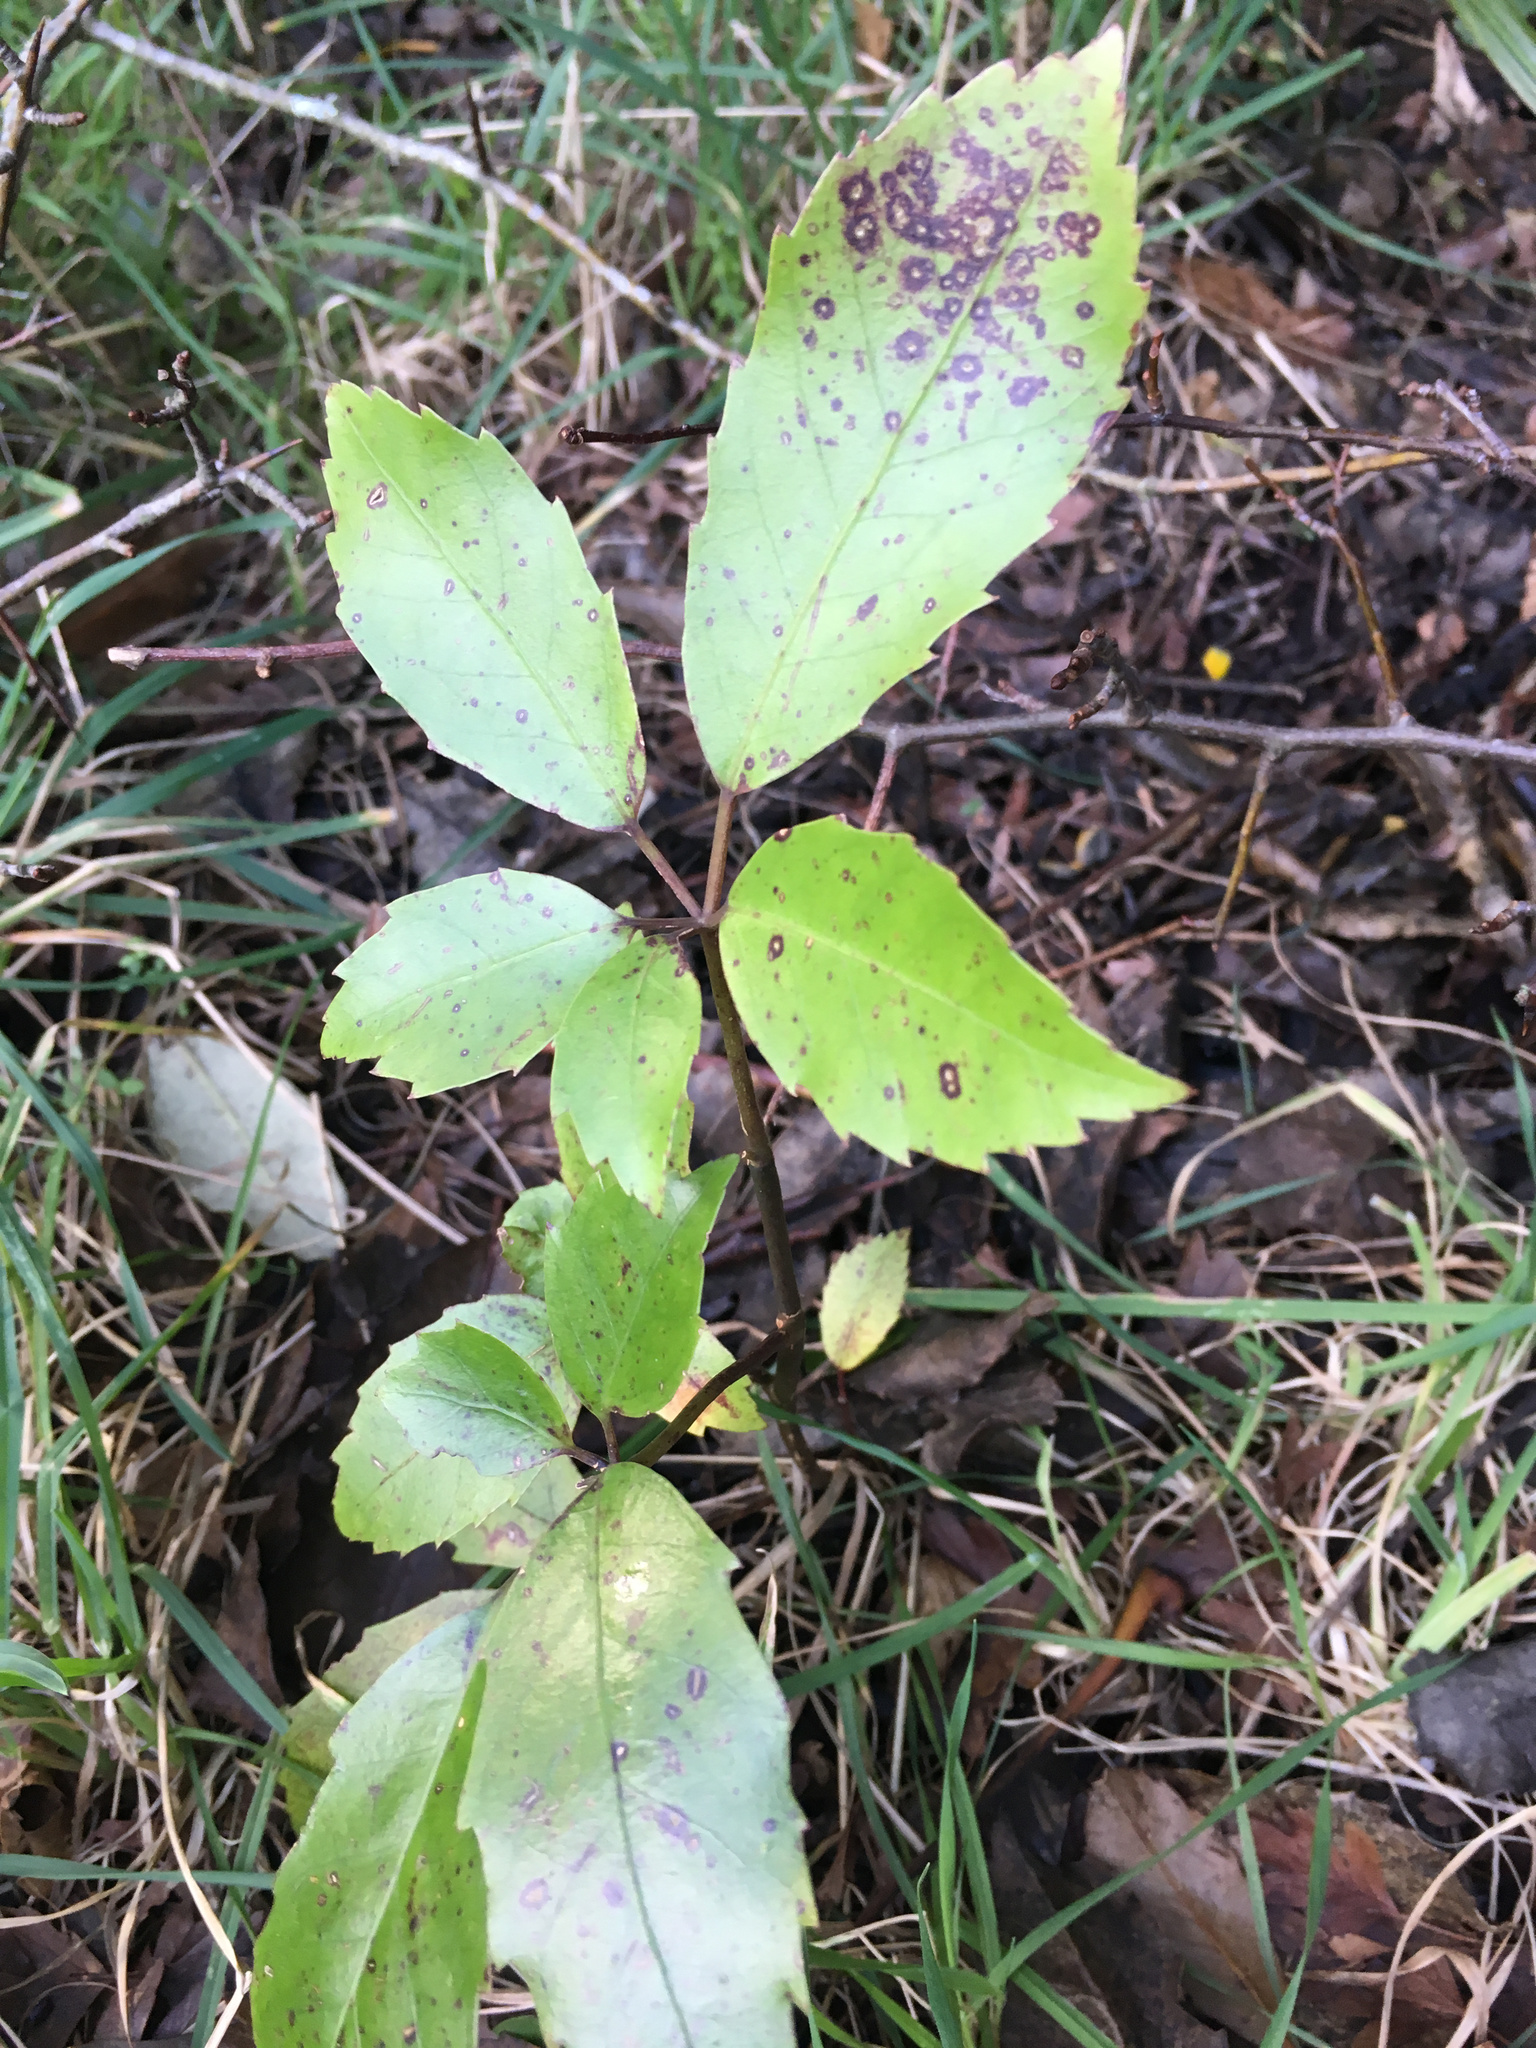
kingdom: Plantae
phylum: Tracheophyta
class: Magnoliopsida
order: Apiales
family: Araliaceae
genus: Neopanax
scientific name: Neopanax arboreus
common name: Five-fingers
